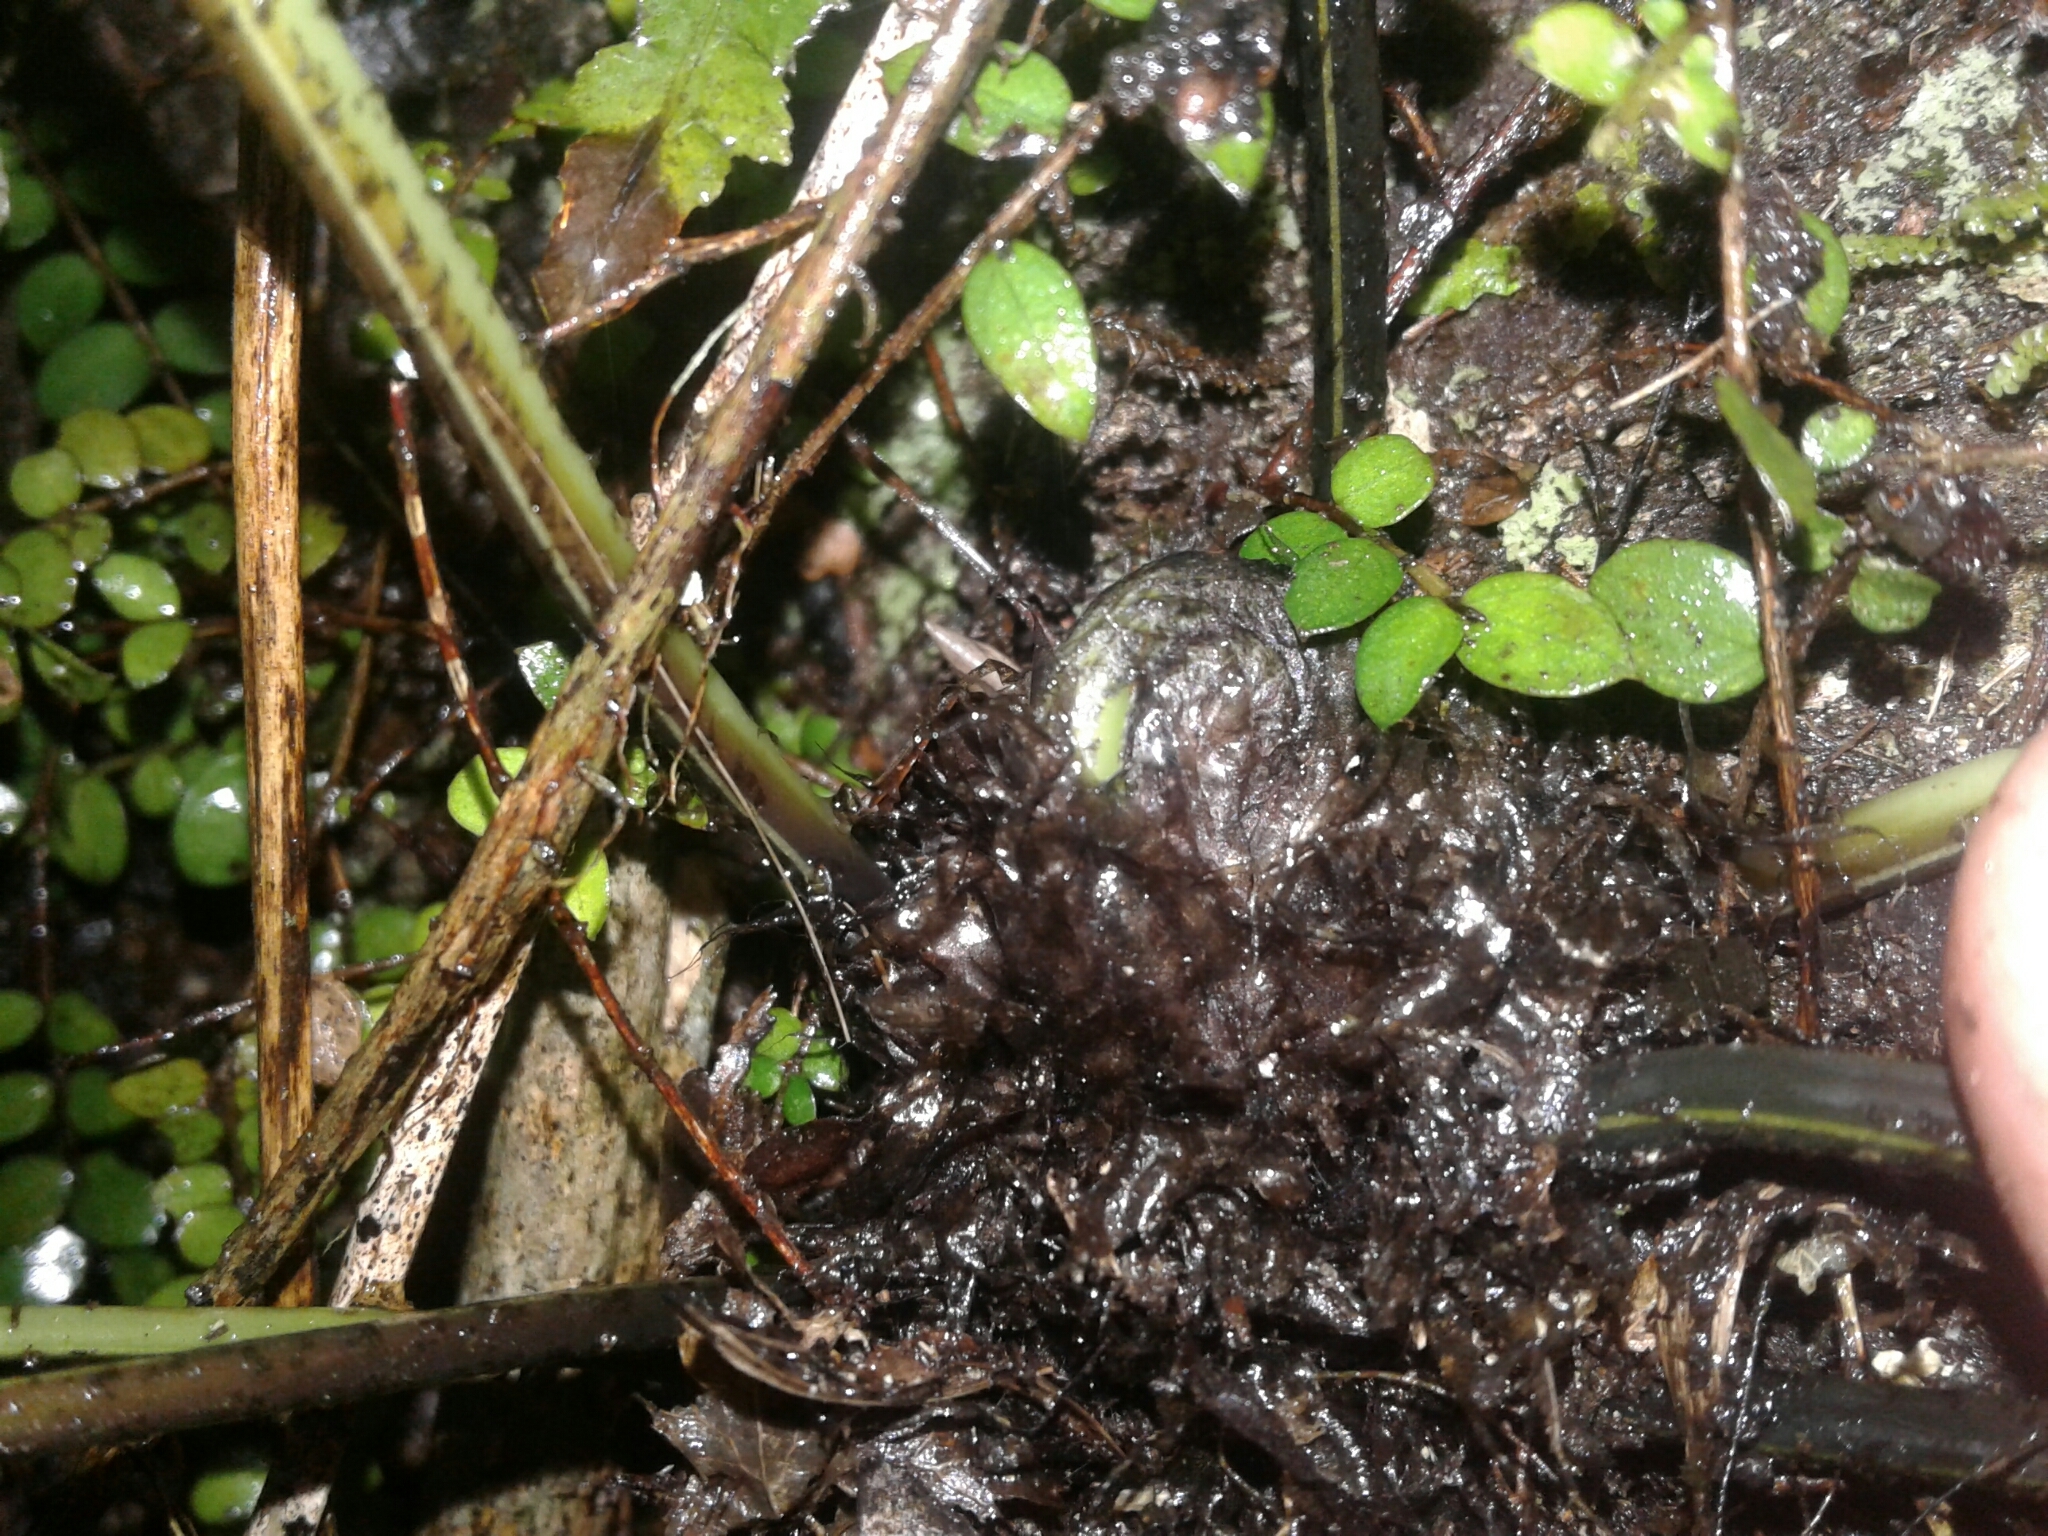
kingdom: Plantae
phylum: Tracheophyta
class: Polypodiopsida
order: Polypodiales
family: Aspleniaceae
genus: Asplenium
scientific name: Asplenium lepidotum
